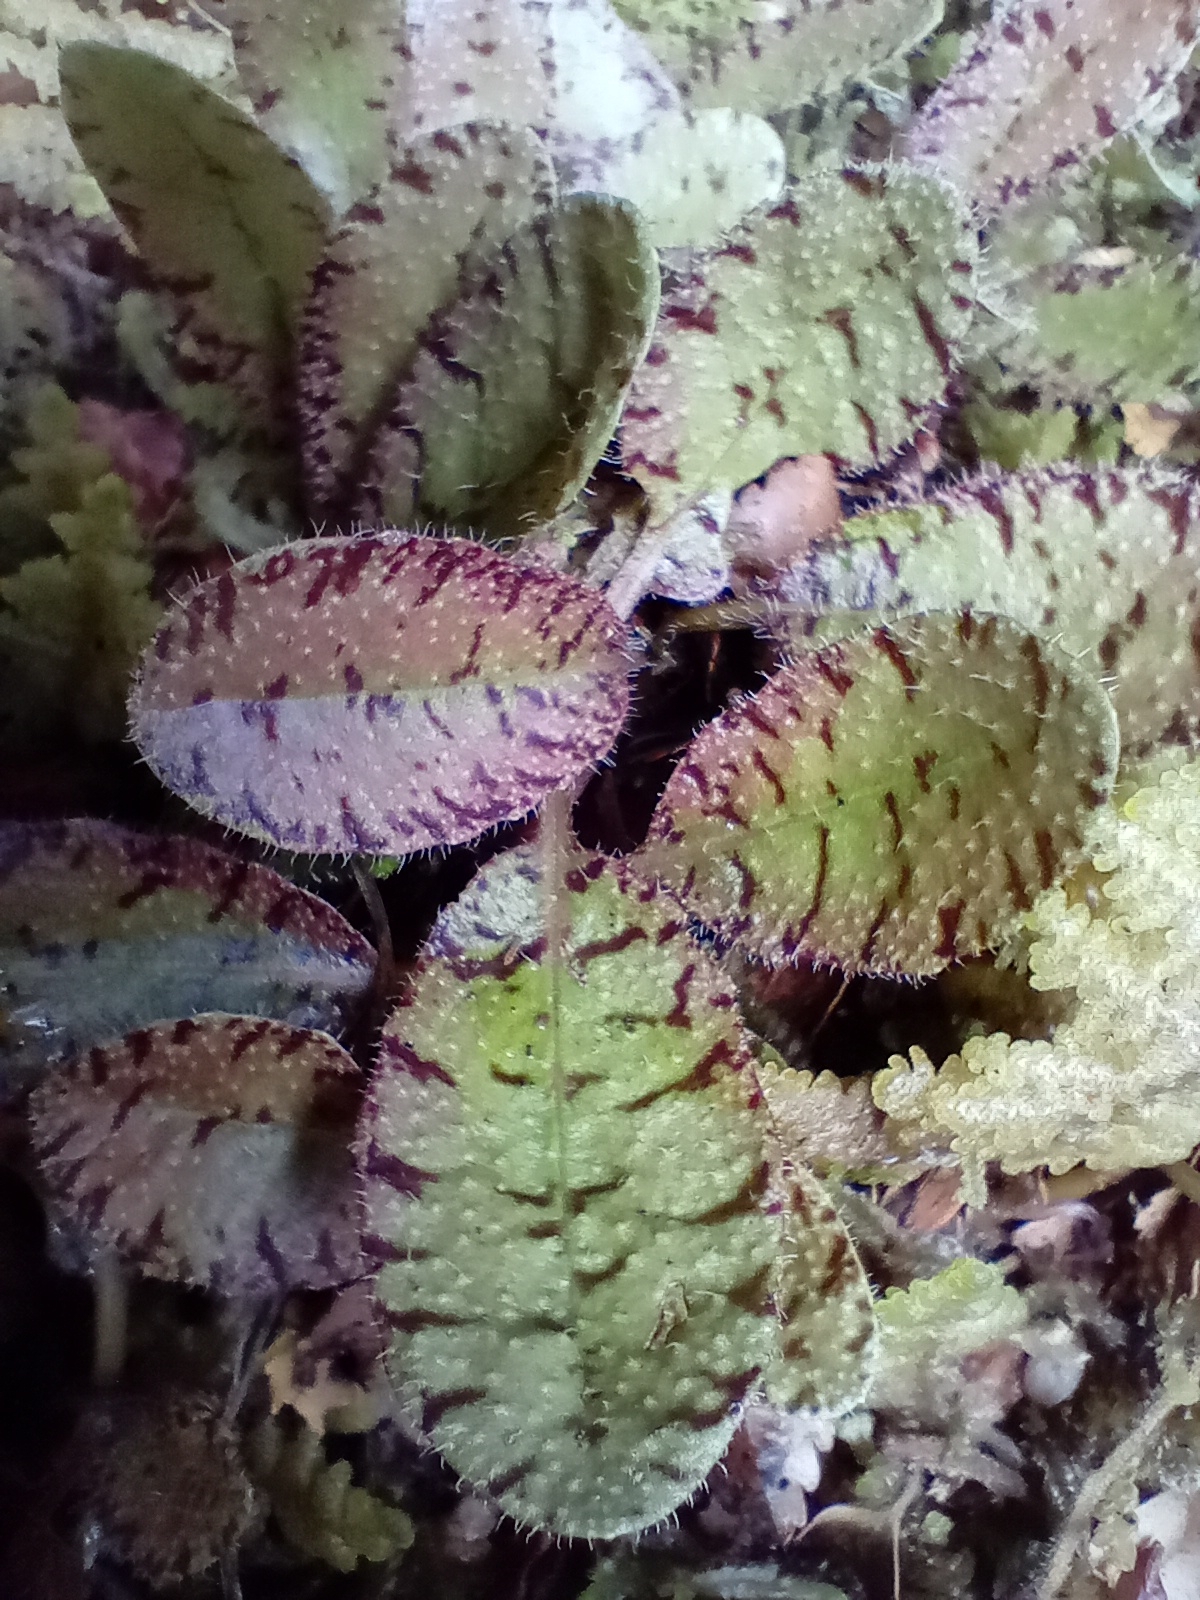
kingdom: Plantae
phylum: Tracheophyta
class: Magnoliopsida
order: Lamiales
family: Mazaceae
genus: Mazus
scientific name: Mazus radicans
